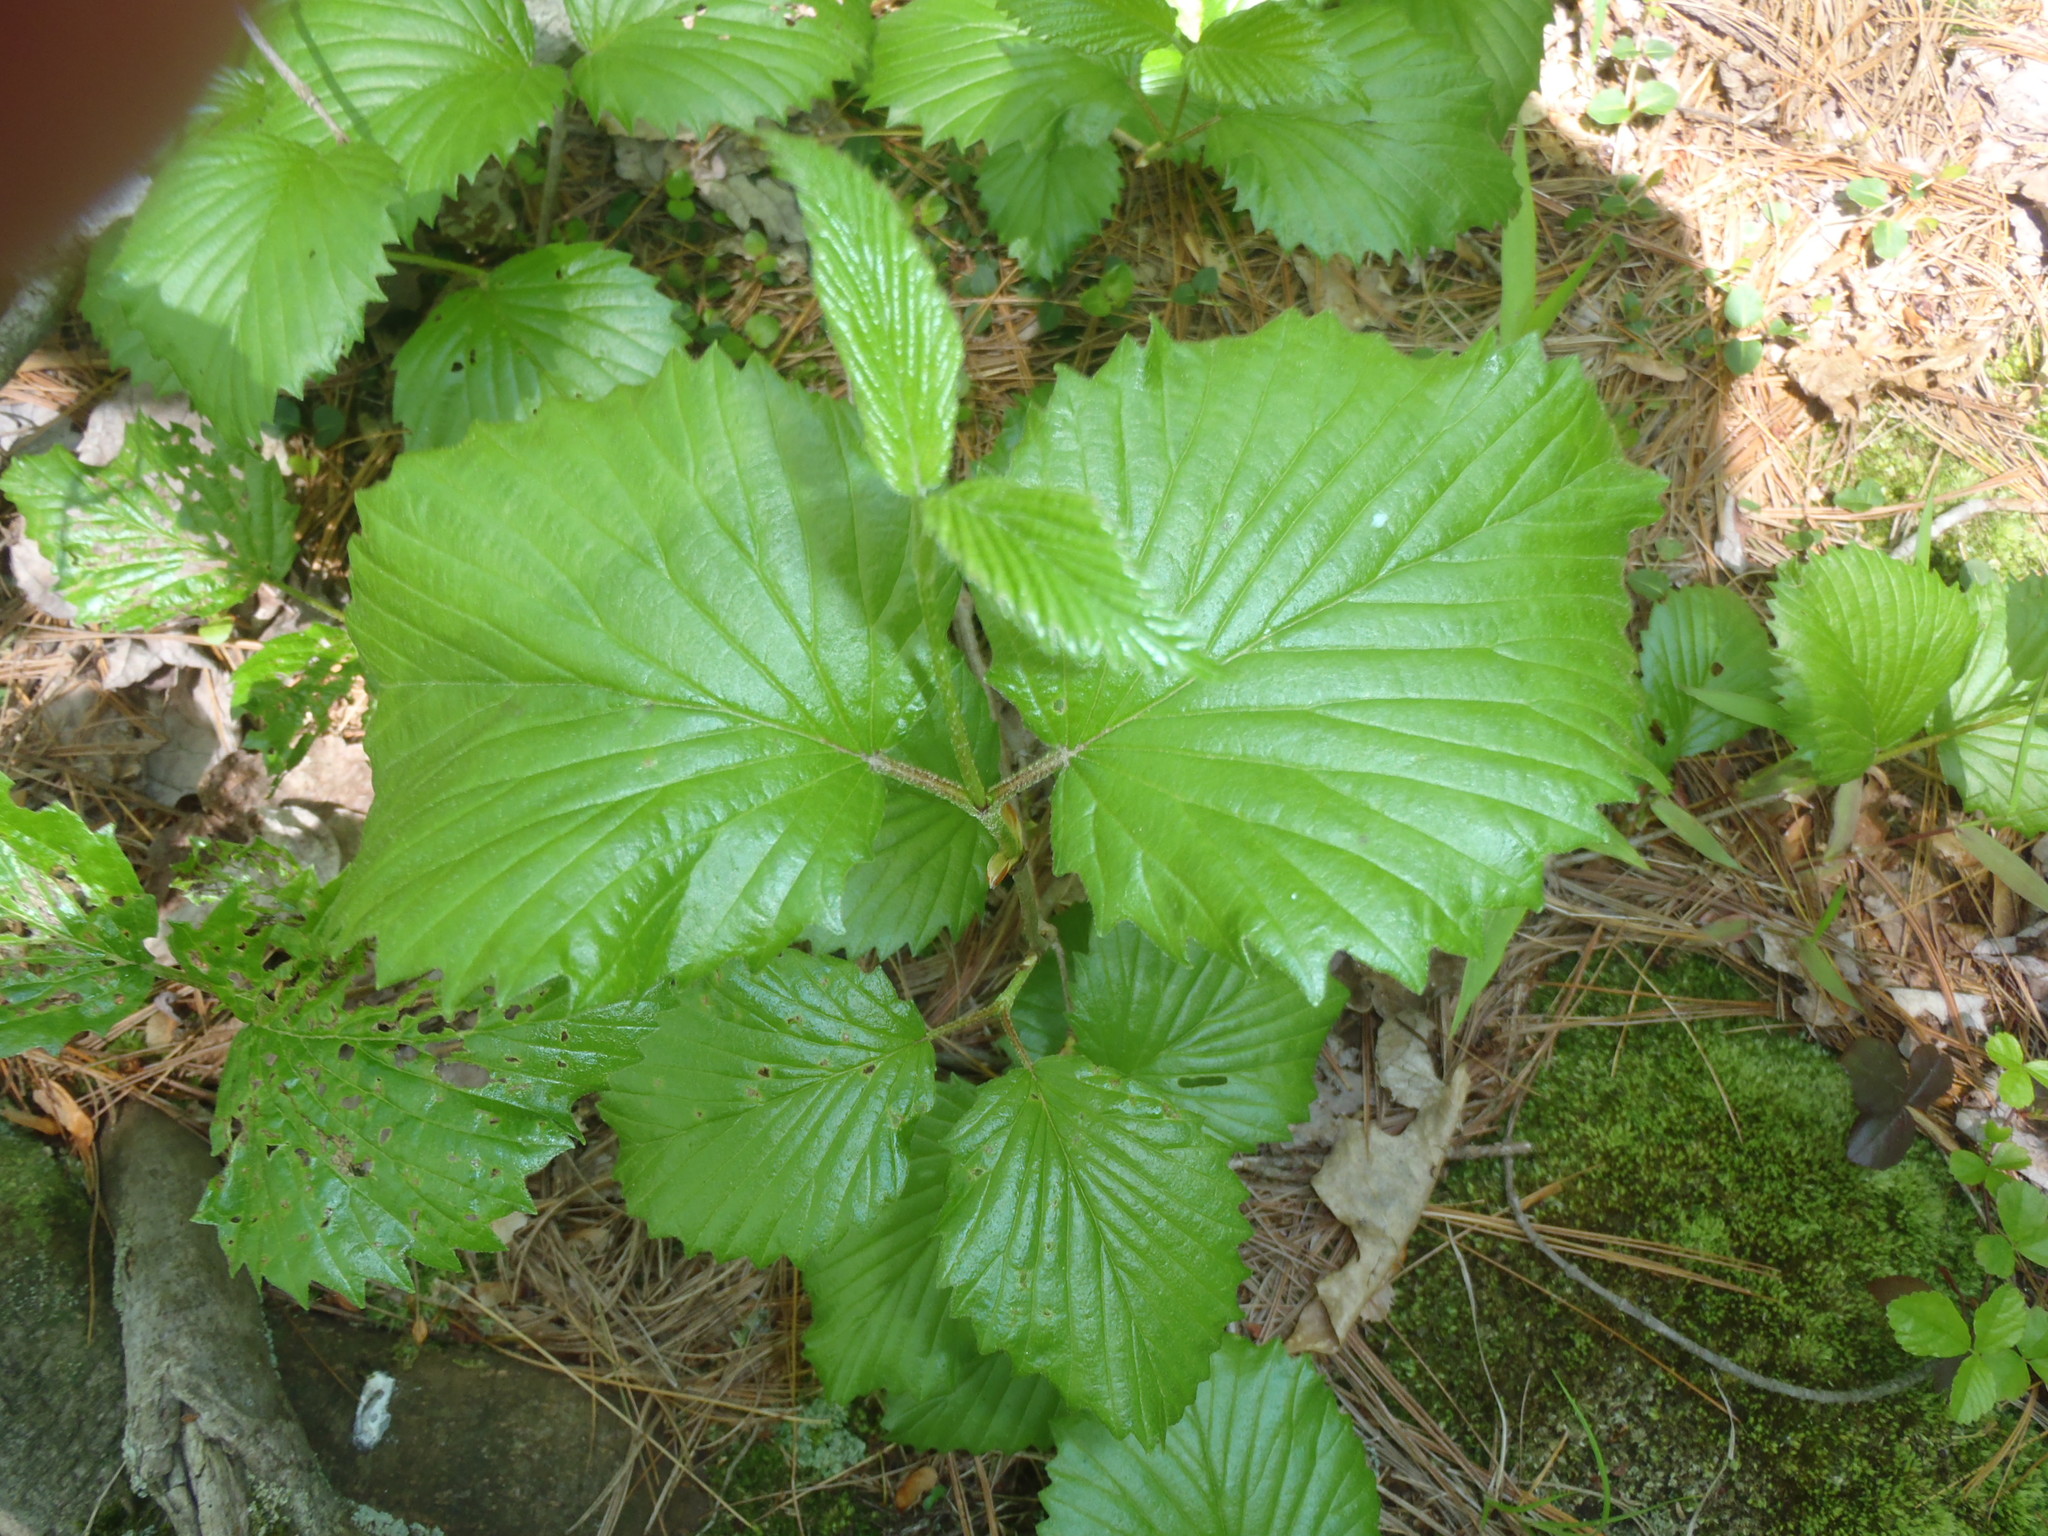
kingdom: Plantae
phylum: Tracheophyta
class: Magnoliopsida
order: Dipsacales
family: Viburnaceae
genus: Viburnum
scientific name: Viburnum dentatum
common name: Arrow-wood
